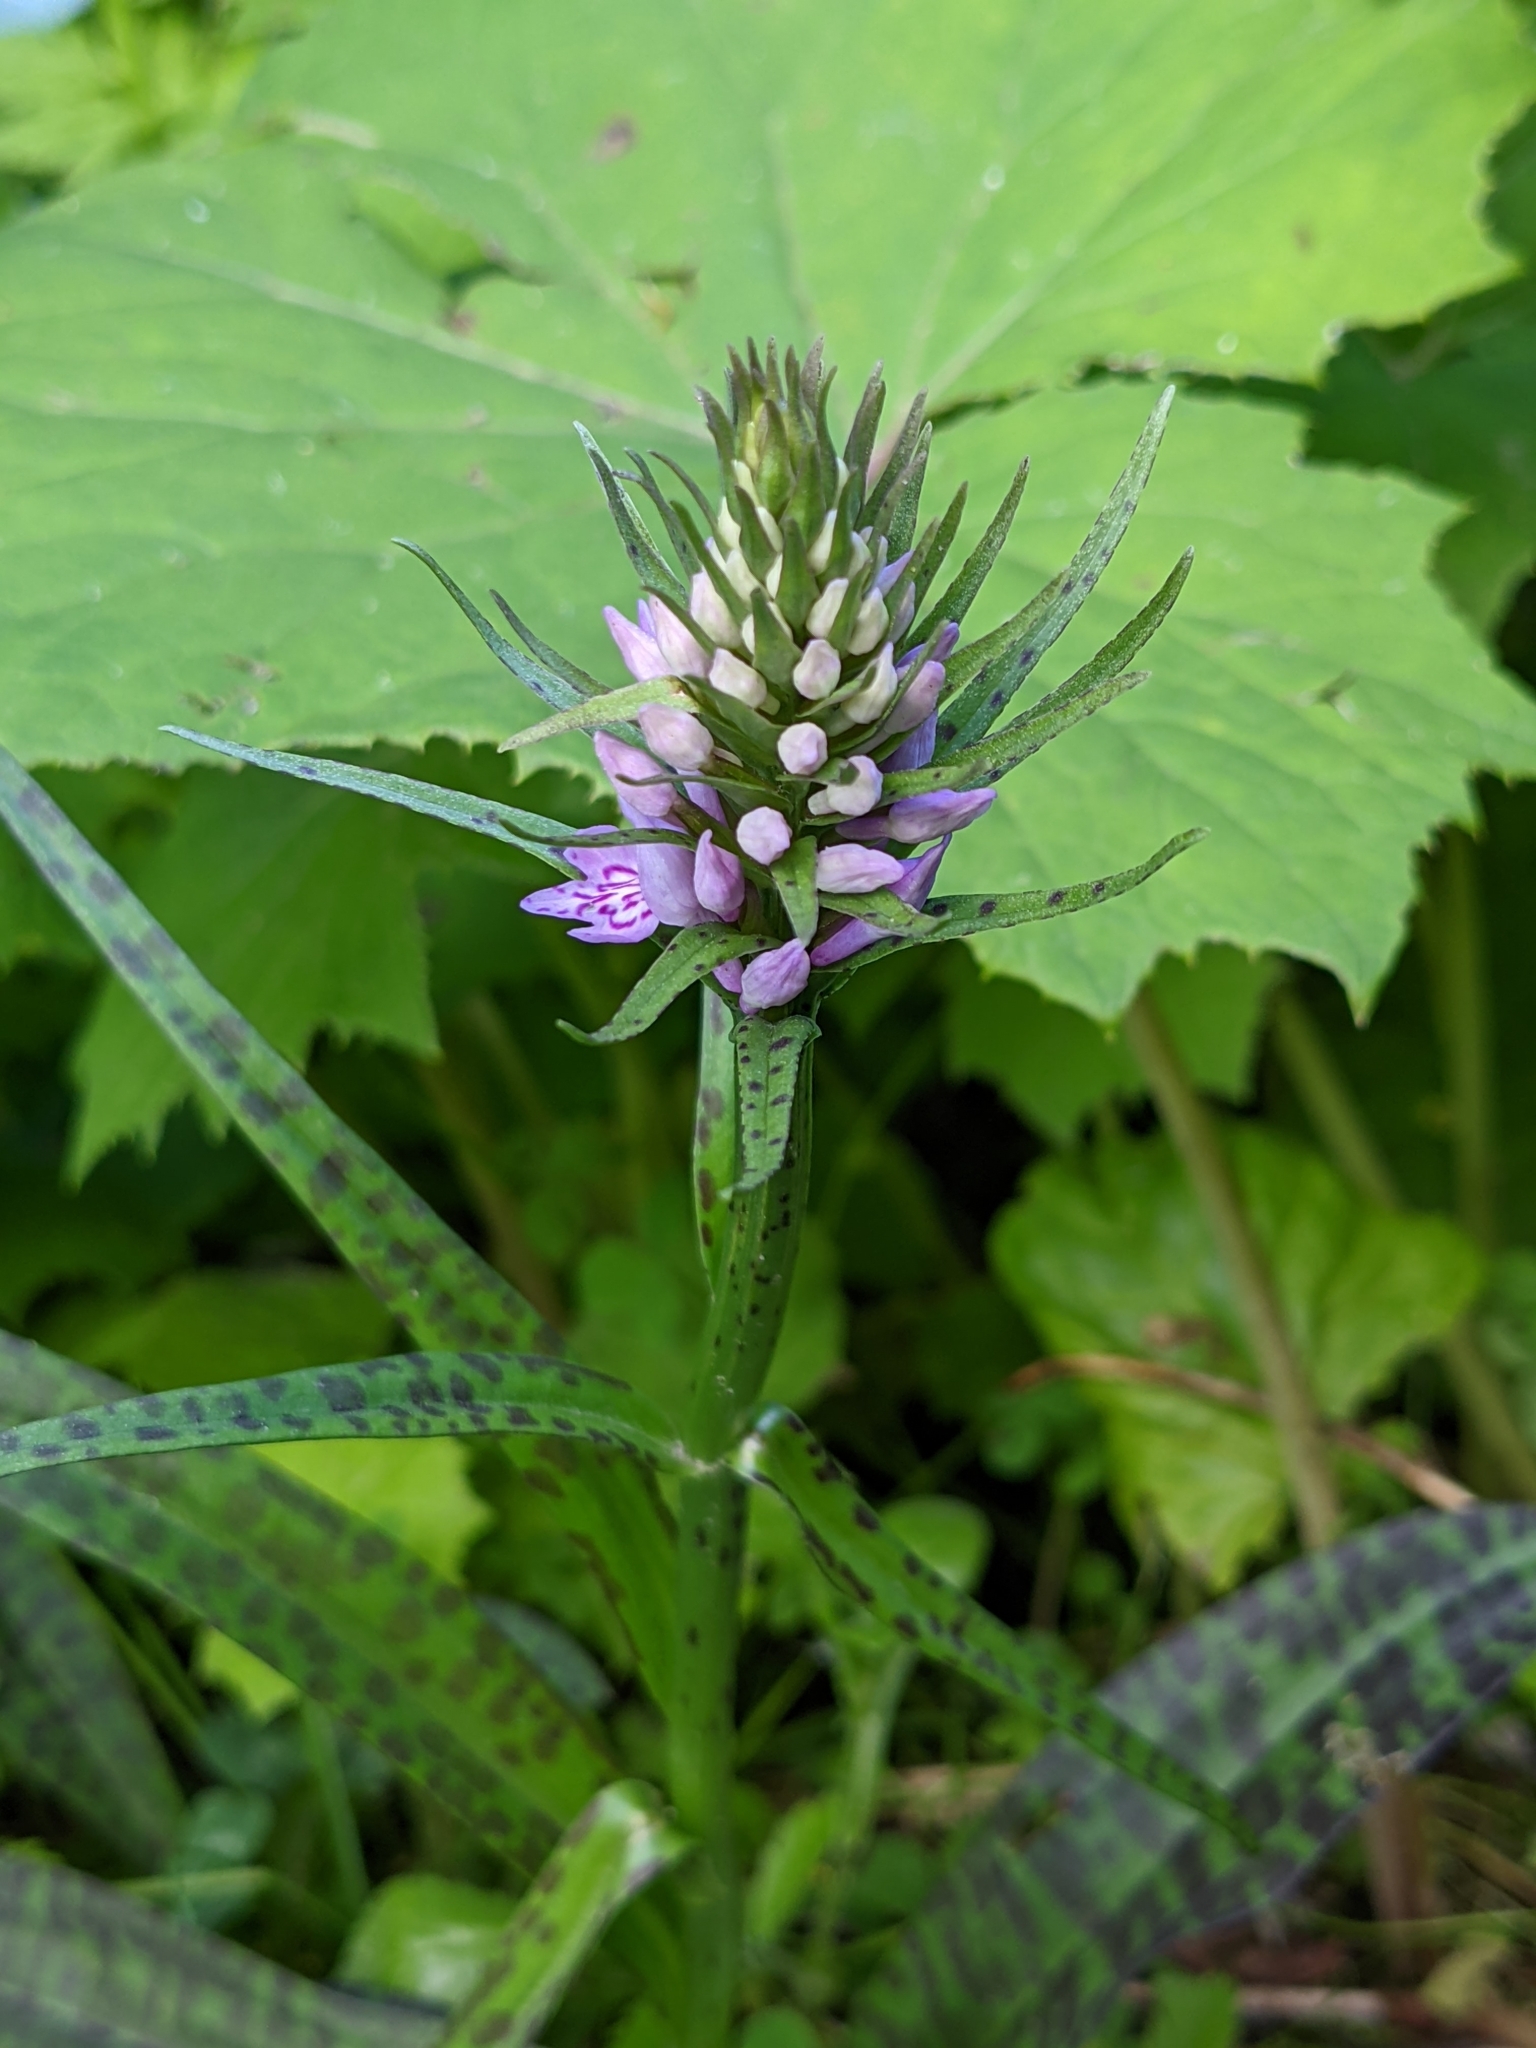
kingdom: Plantae
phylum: Tracheophyta
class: Liliopsida
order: Asparagales
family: Orchidaceae
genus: Dactylorhiza
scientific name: Dactylorhiza maculata
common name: Heath spotted-orchid
